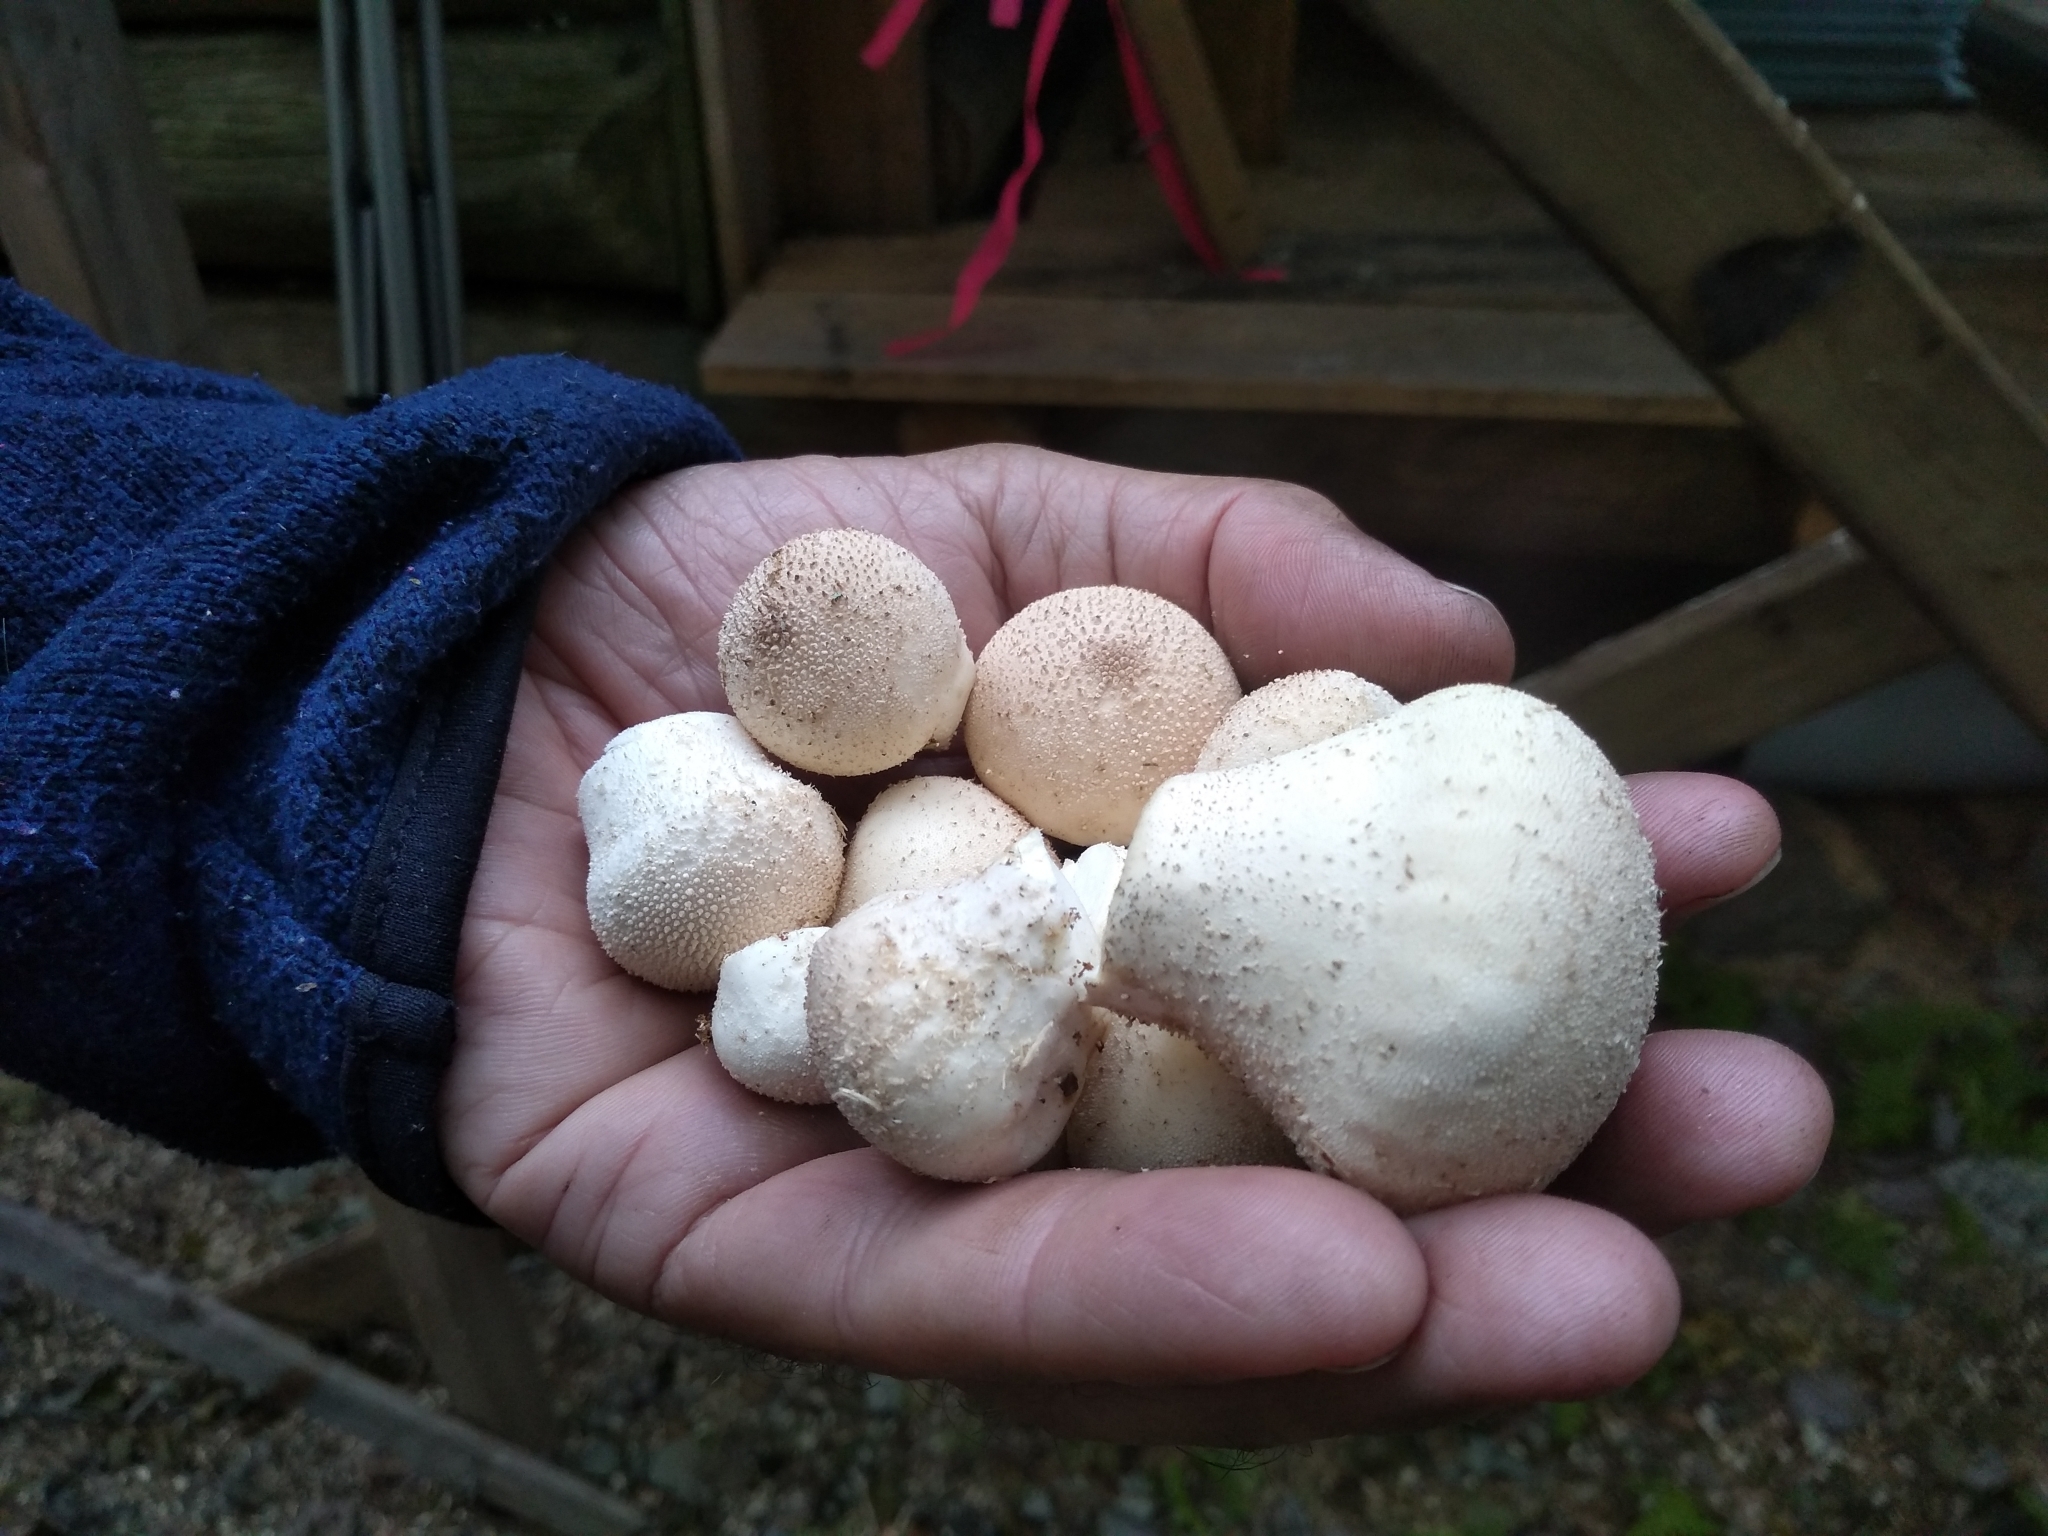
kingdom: Fungi
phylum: Basidiomycota
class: Agaricomycetes
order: Agaricales
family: Lycoperdaceae
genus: Lycoperdon
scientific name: Lycoperdon perlatum
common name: Common puffball
